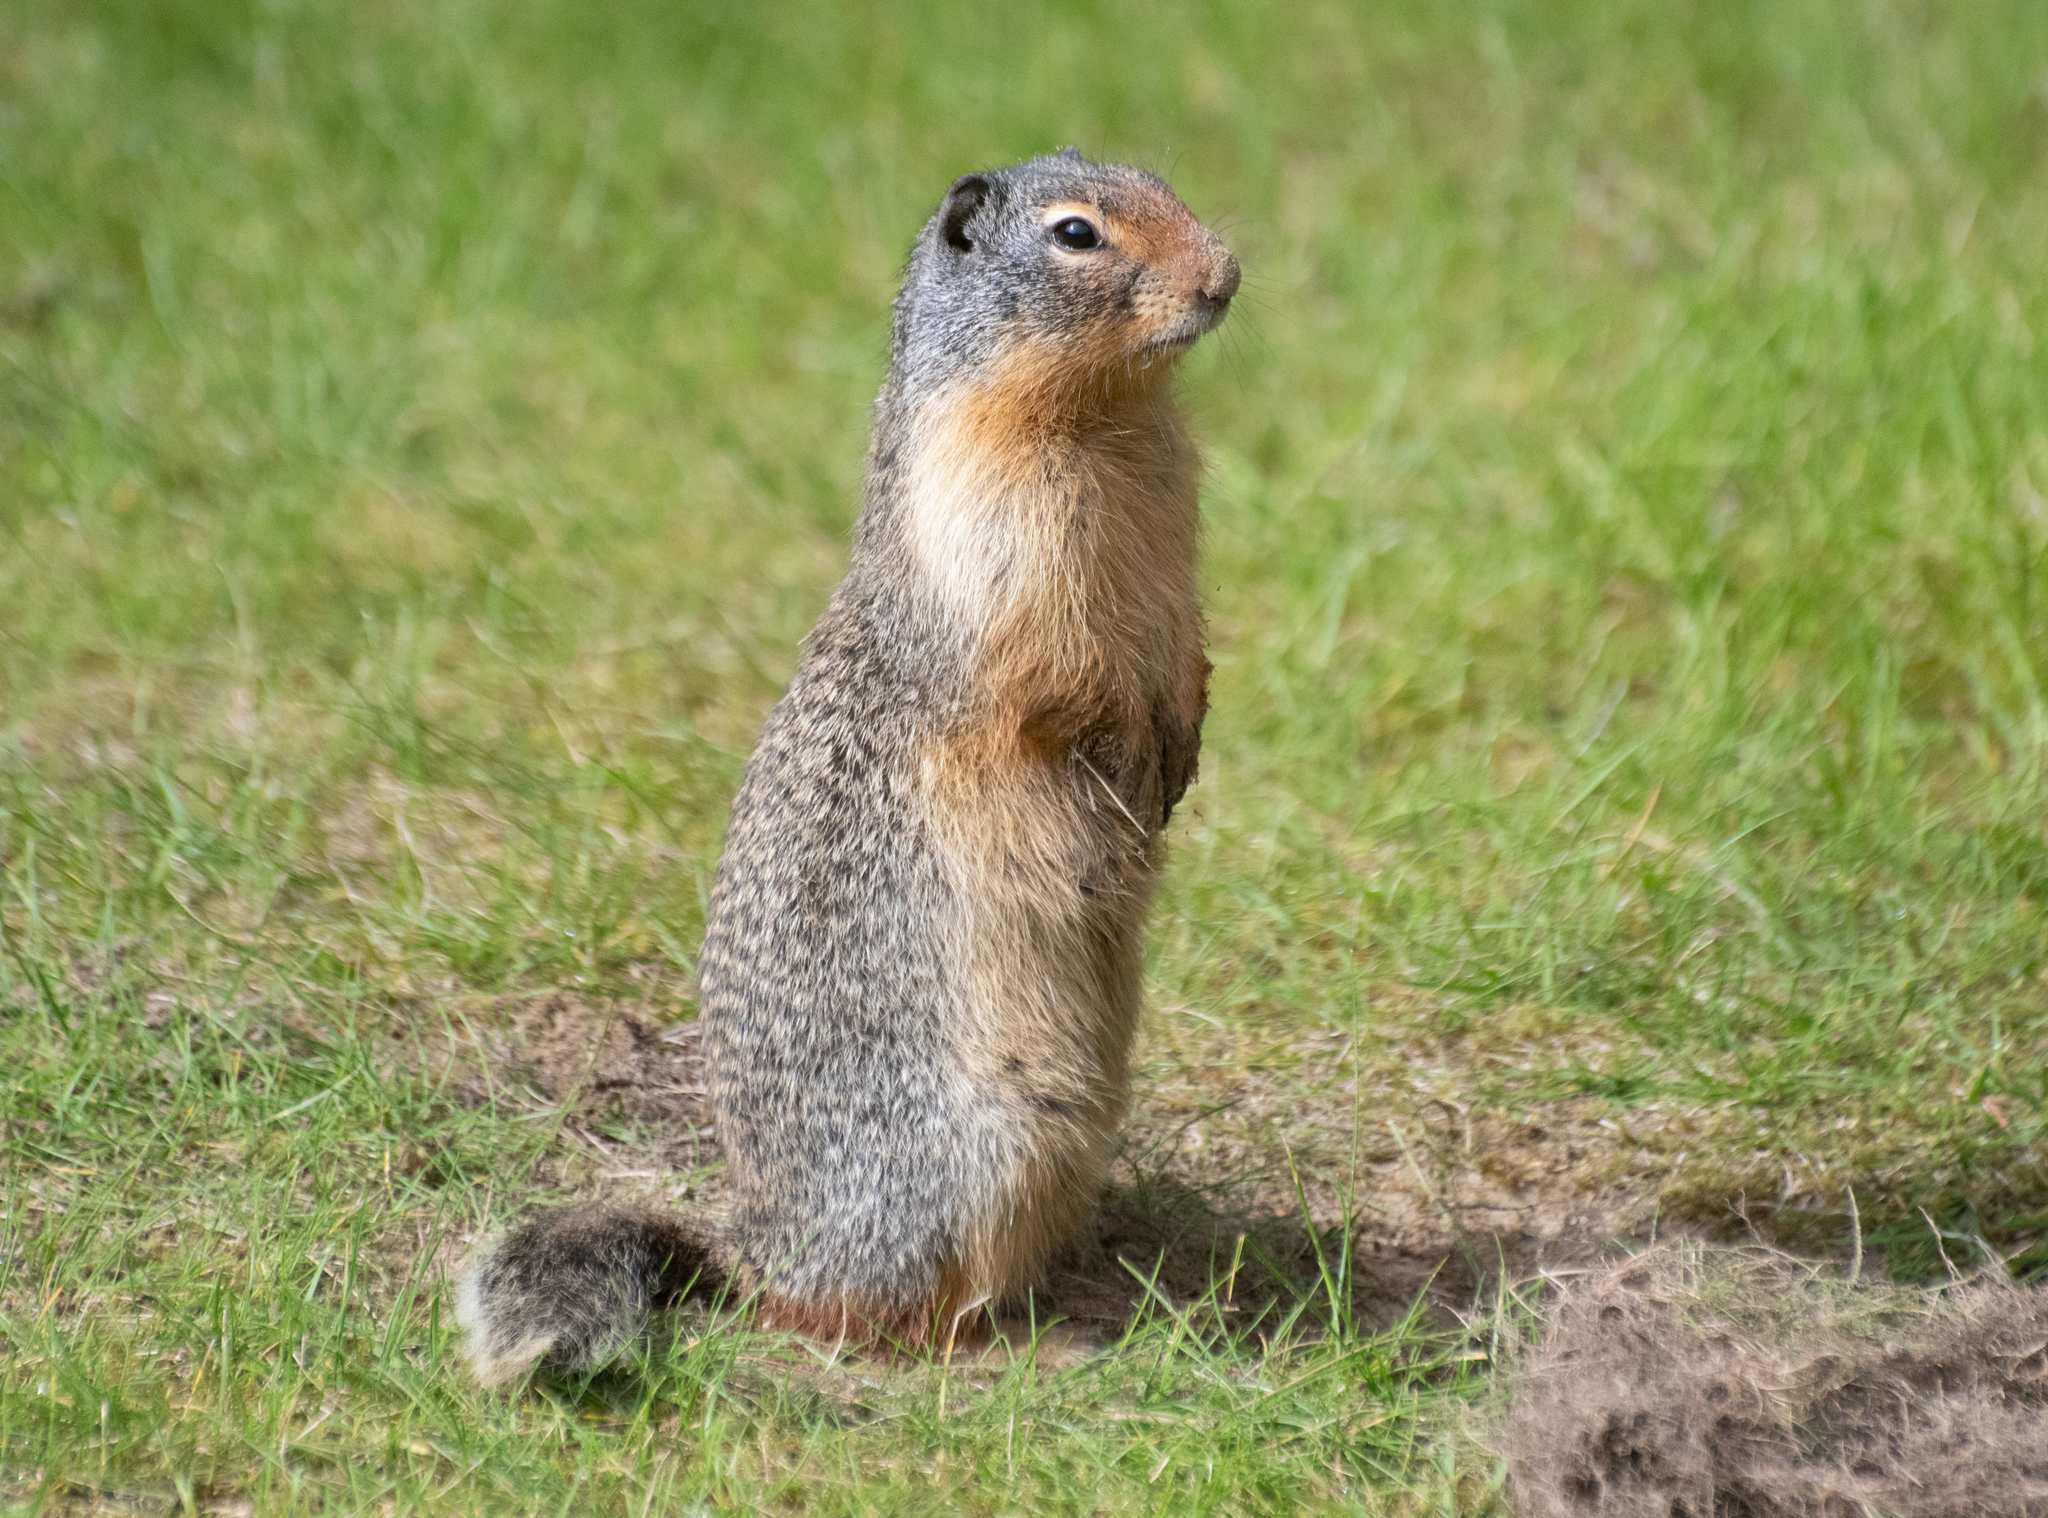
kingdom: Animalia
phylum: Chordata
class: Mammalia
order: Rodentia
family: Sciuridae
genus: Urocitellus
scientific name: Urocitellus columbianus
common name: Columbian ground squirrel
